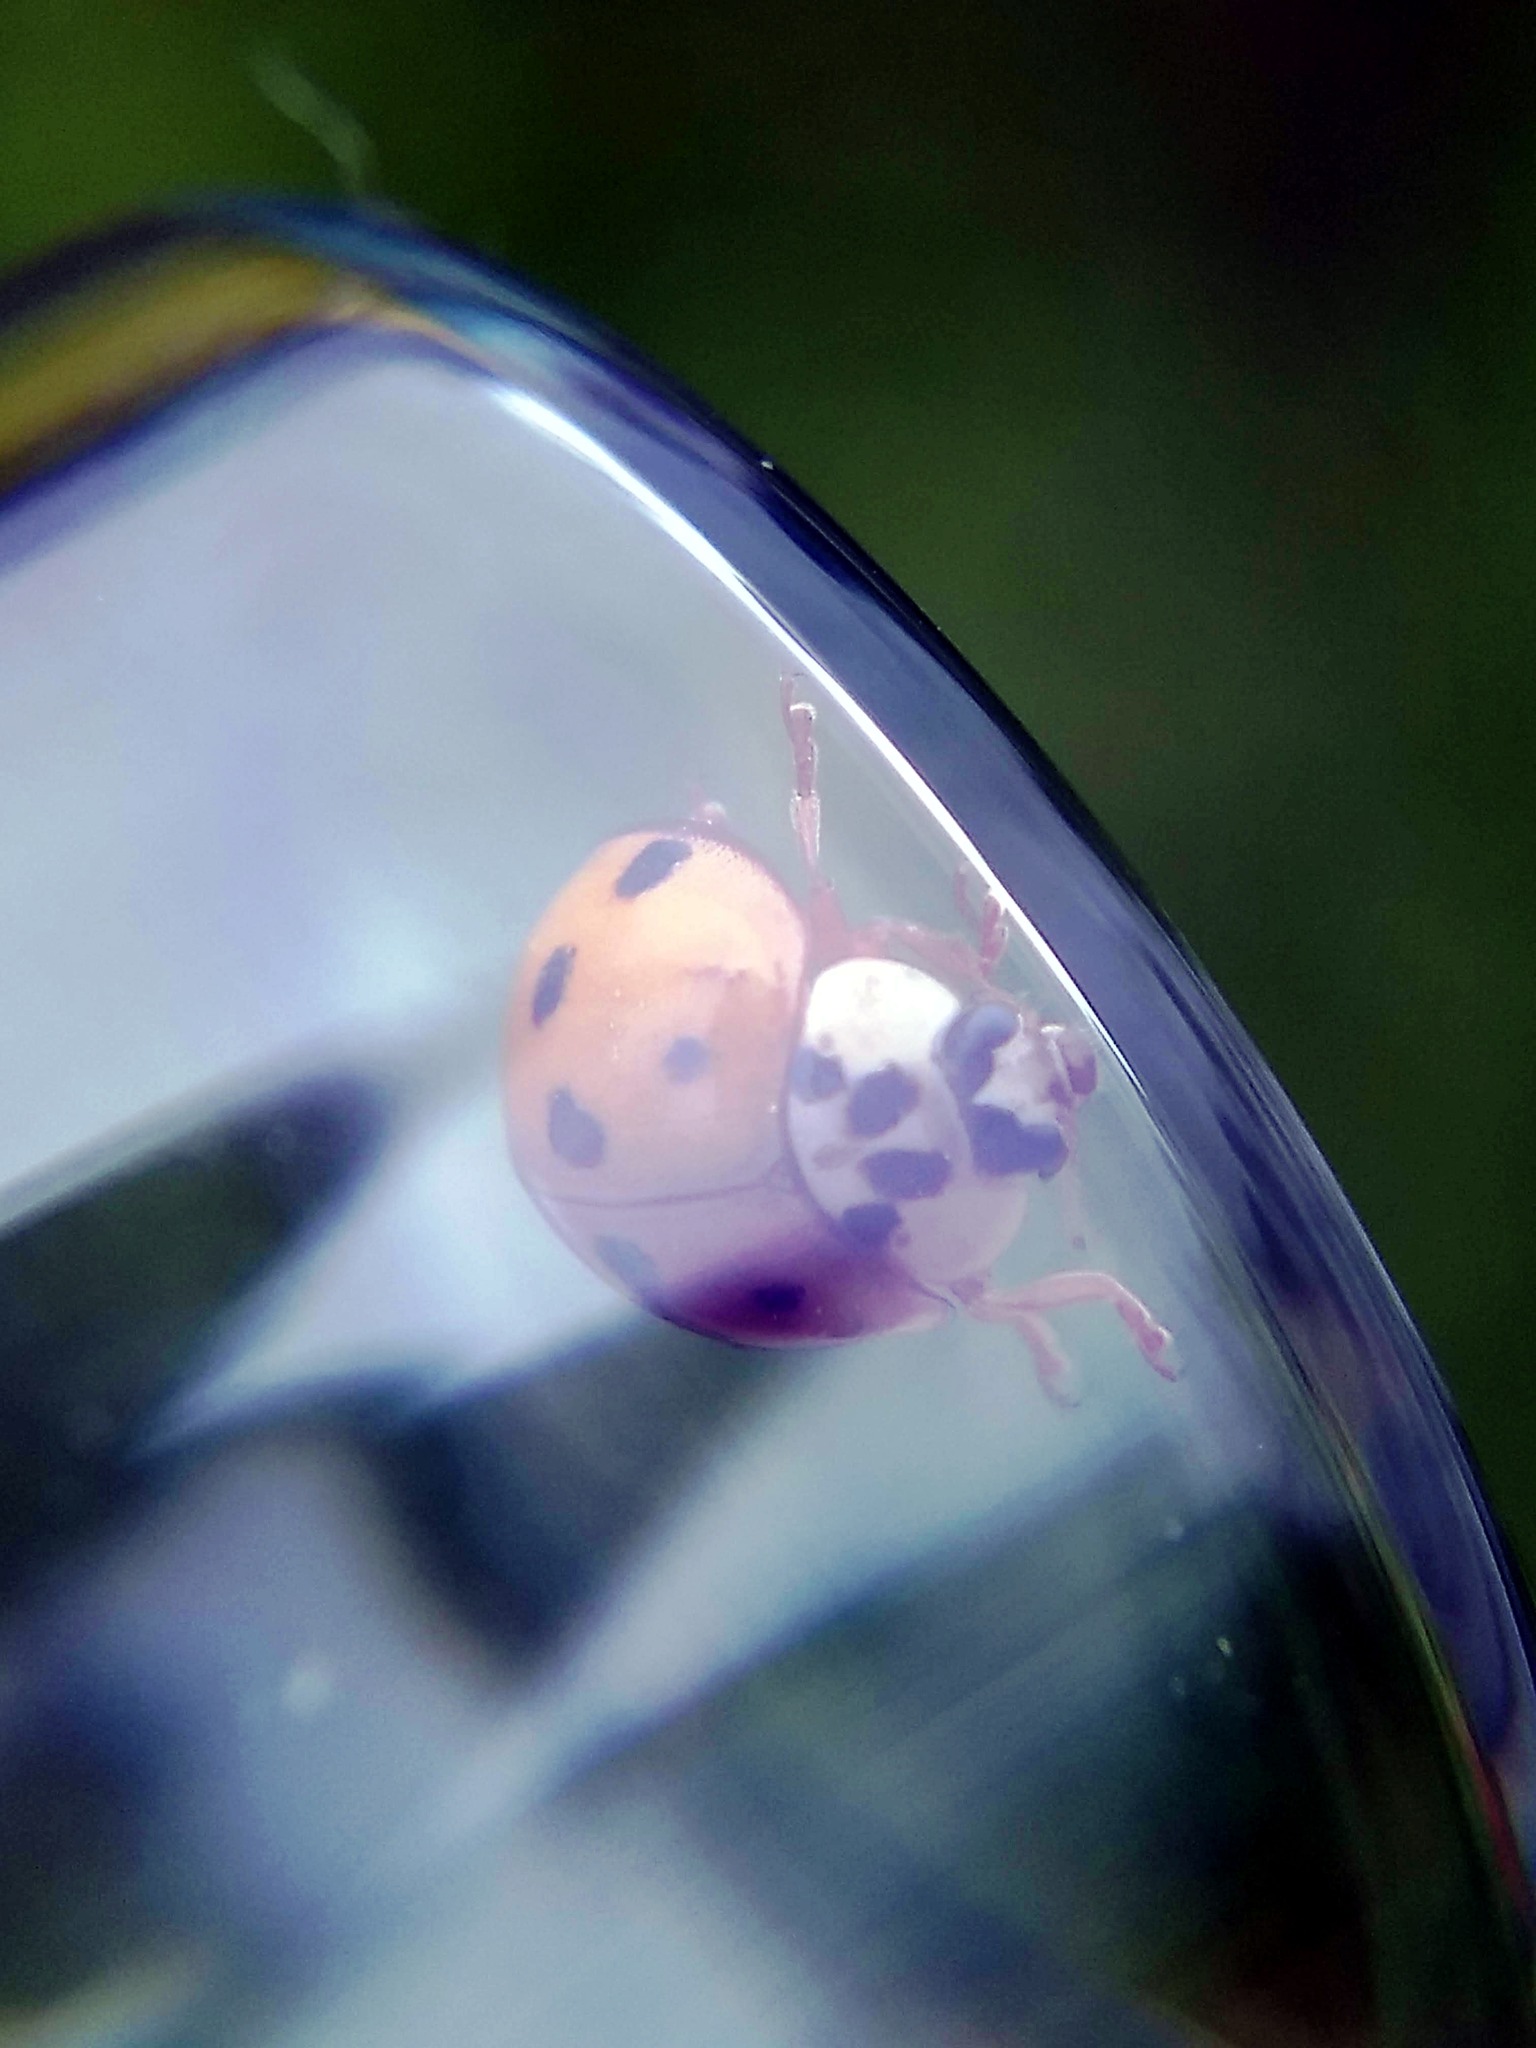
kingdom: Animalia
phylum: Arthropoda
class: Insecta
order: Coleoptera
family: Coccinellidae
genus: Harmonia
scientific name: Harmonia axyridis
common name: Harlequin ladybird
